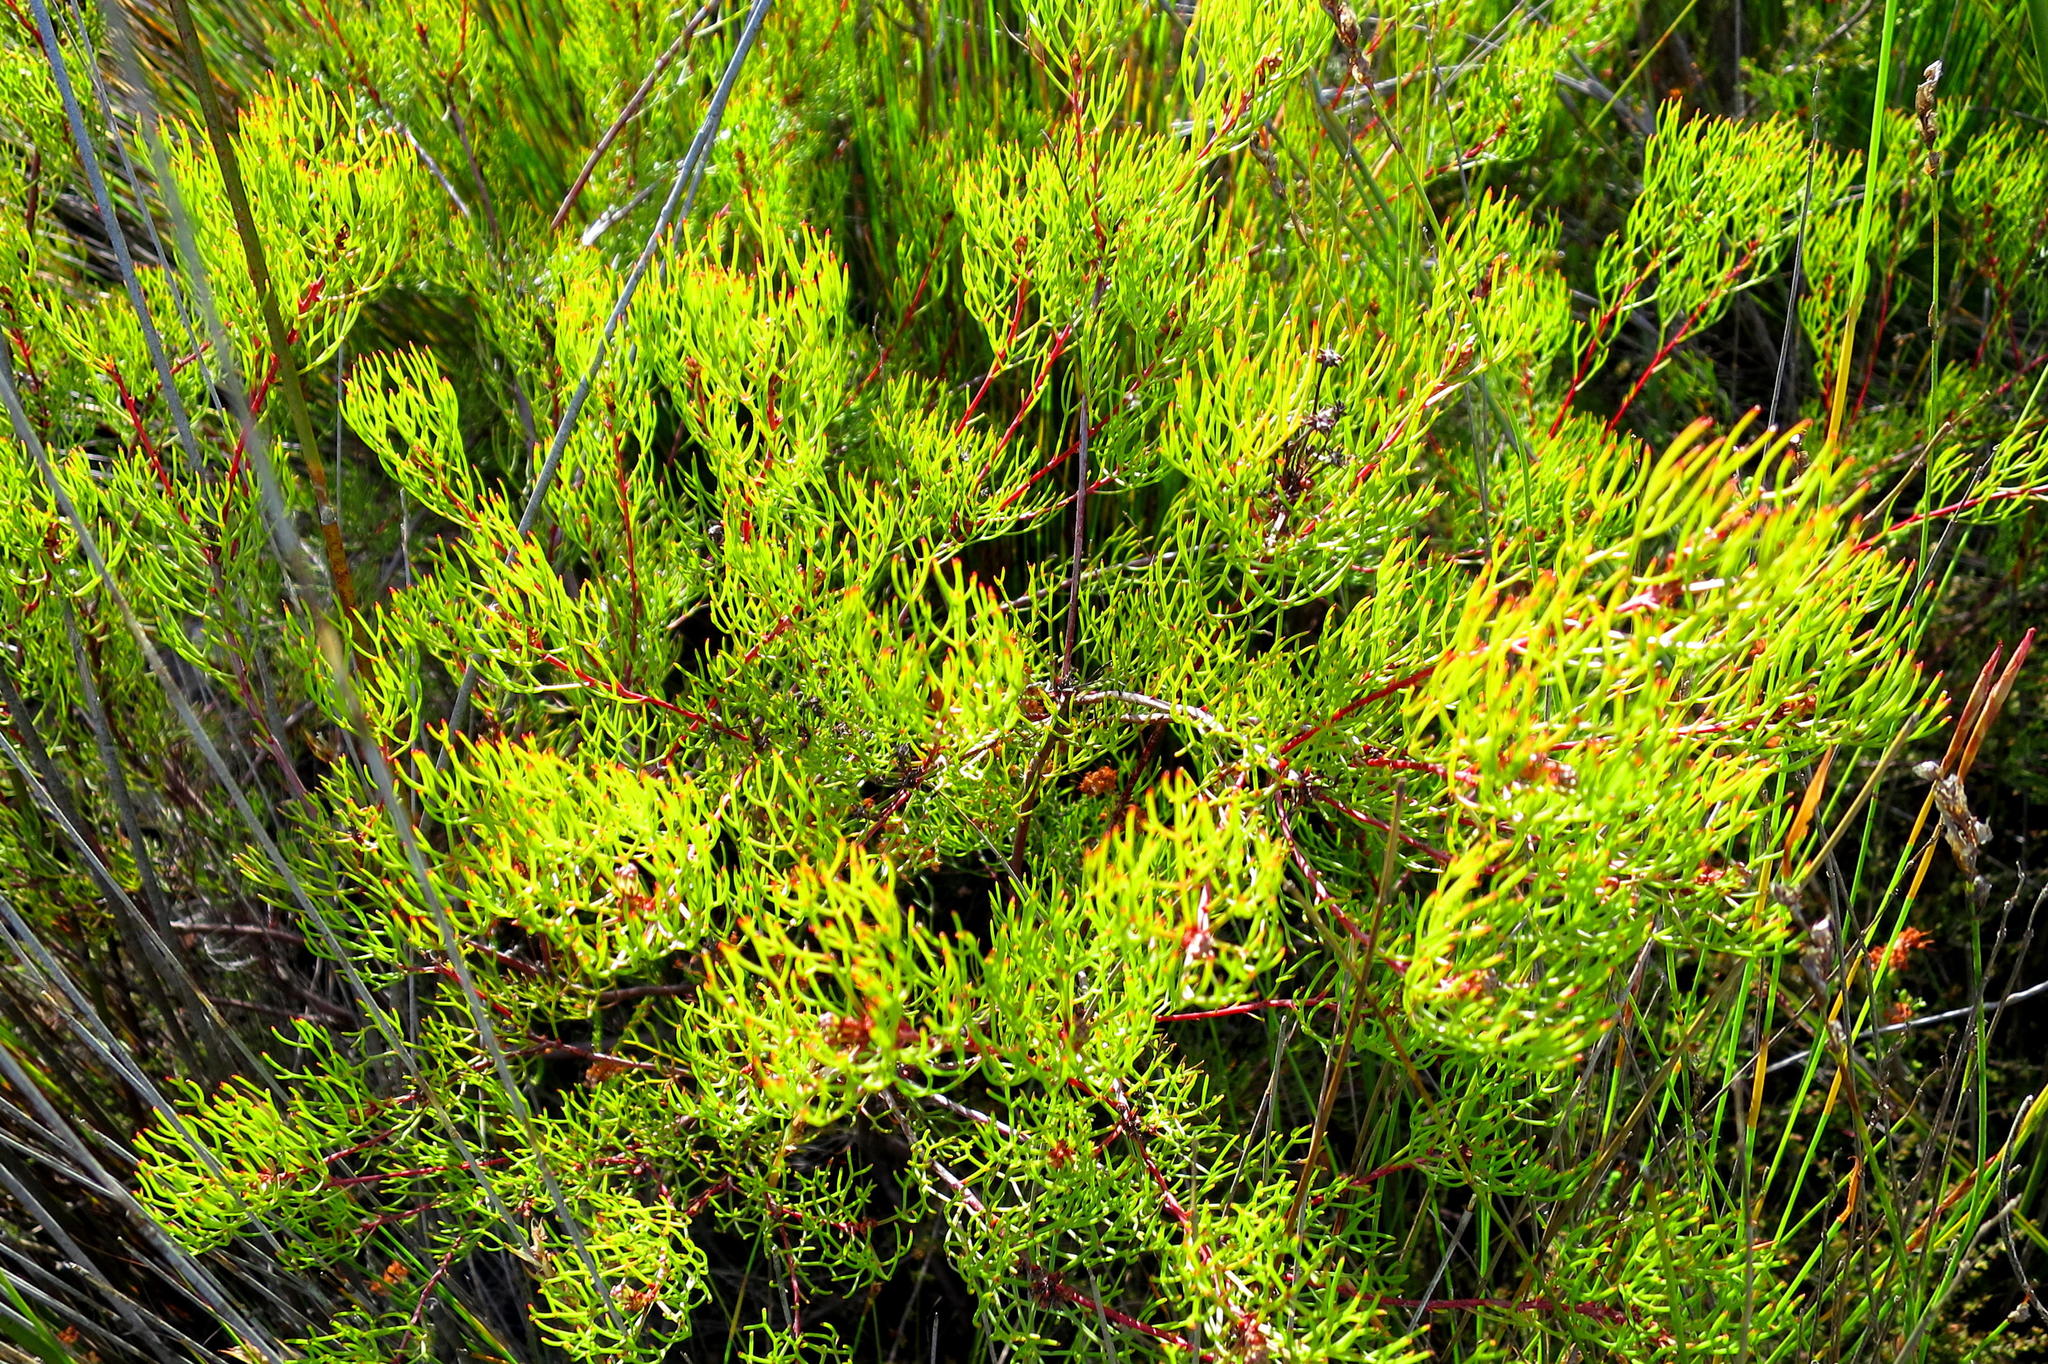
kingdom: Plantae
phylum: Tracheophyta
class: Magnoliopsida
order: Proteales
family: Proteaceae
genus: Serruria
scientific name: Serruria fasciflora
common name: Common pin spiderhead
